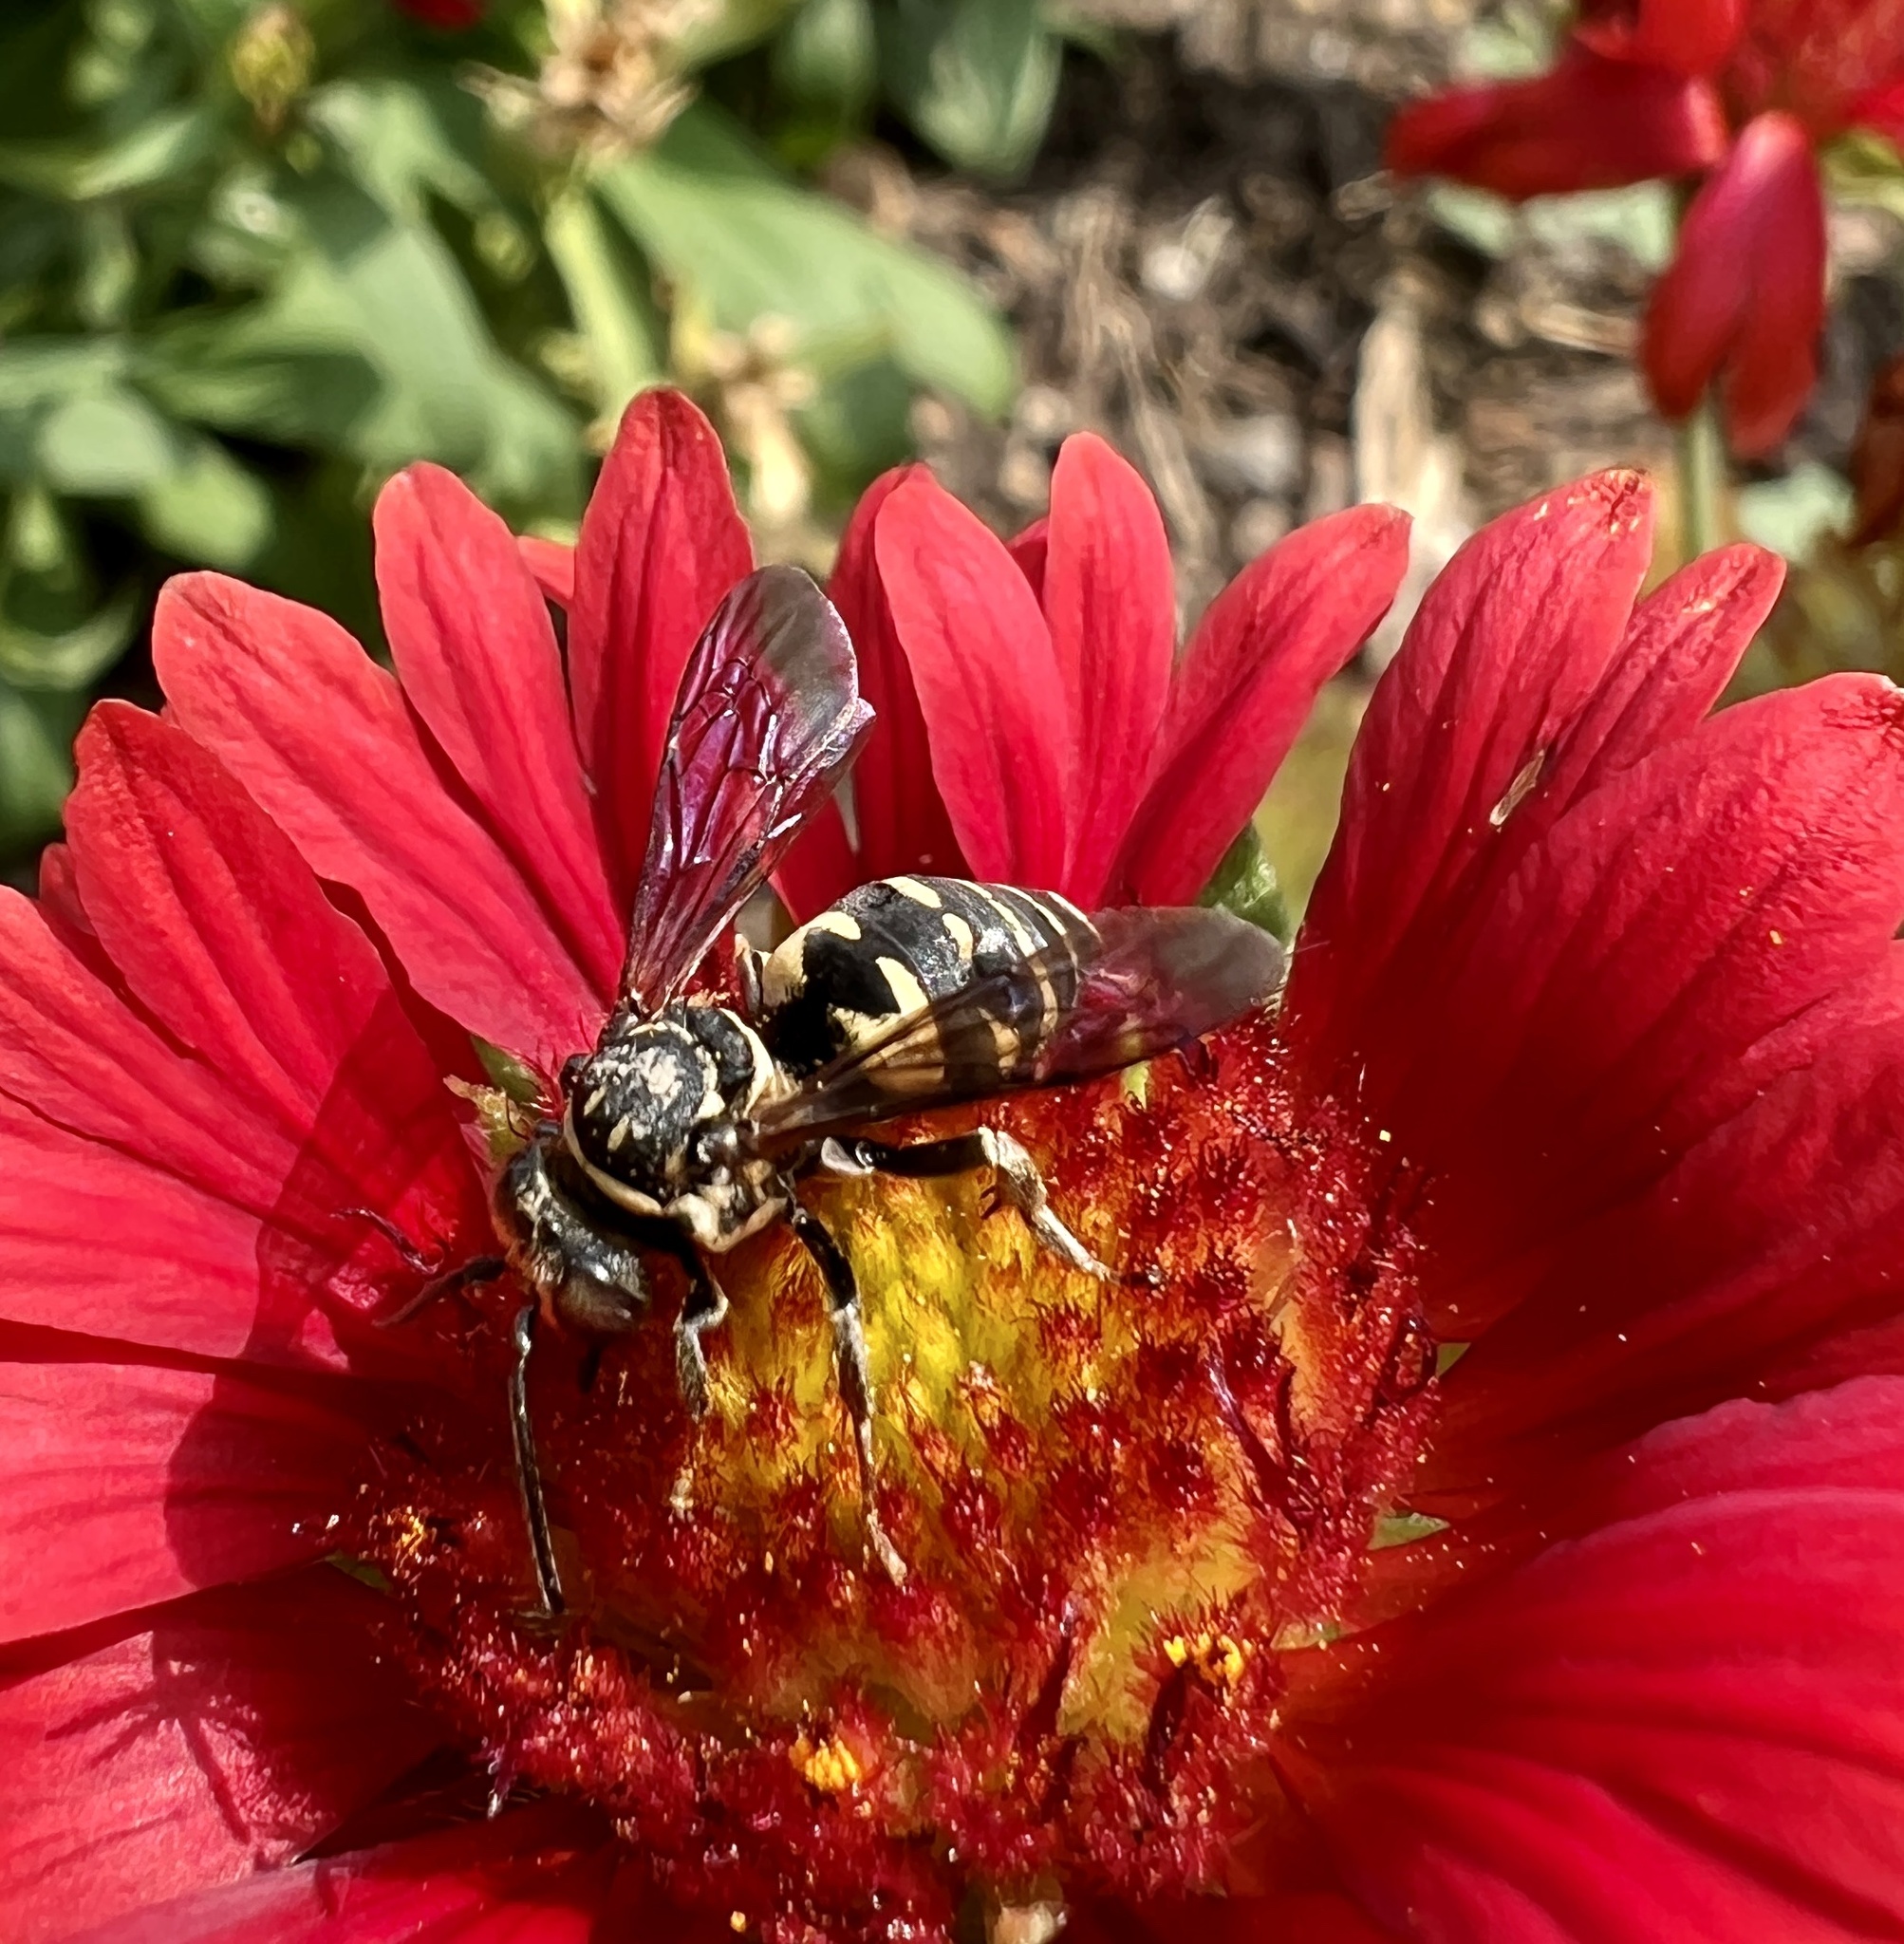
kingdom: Animalia
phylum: Arthropoda
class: Insecta
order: Hymenoptera
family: Apidae
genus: Triepeolus
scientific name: Triepeolus lunatus
